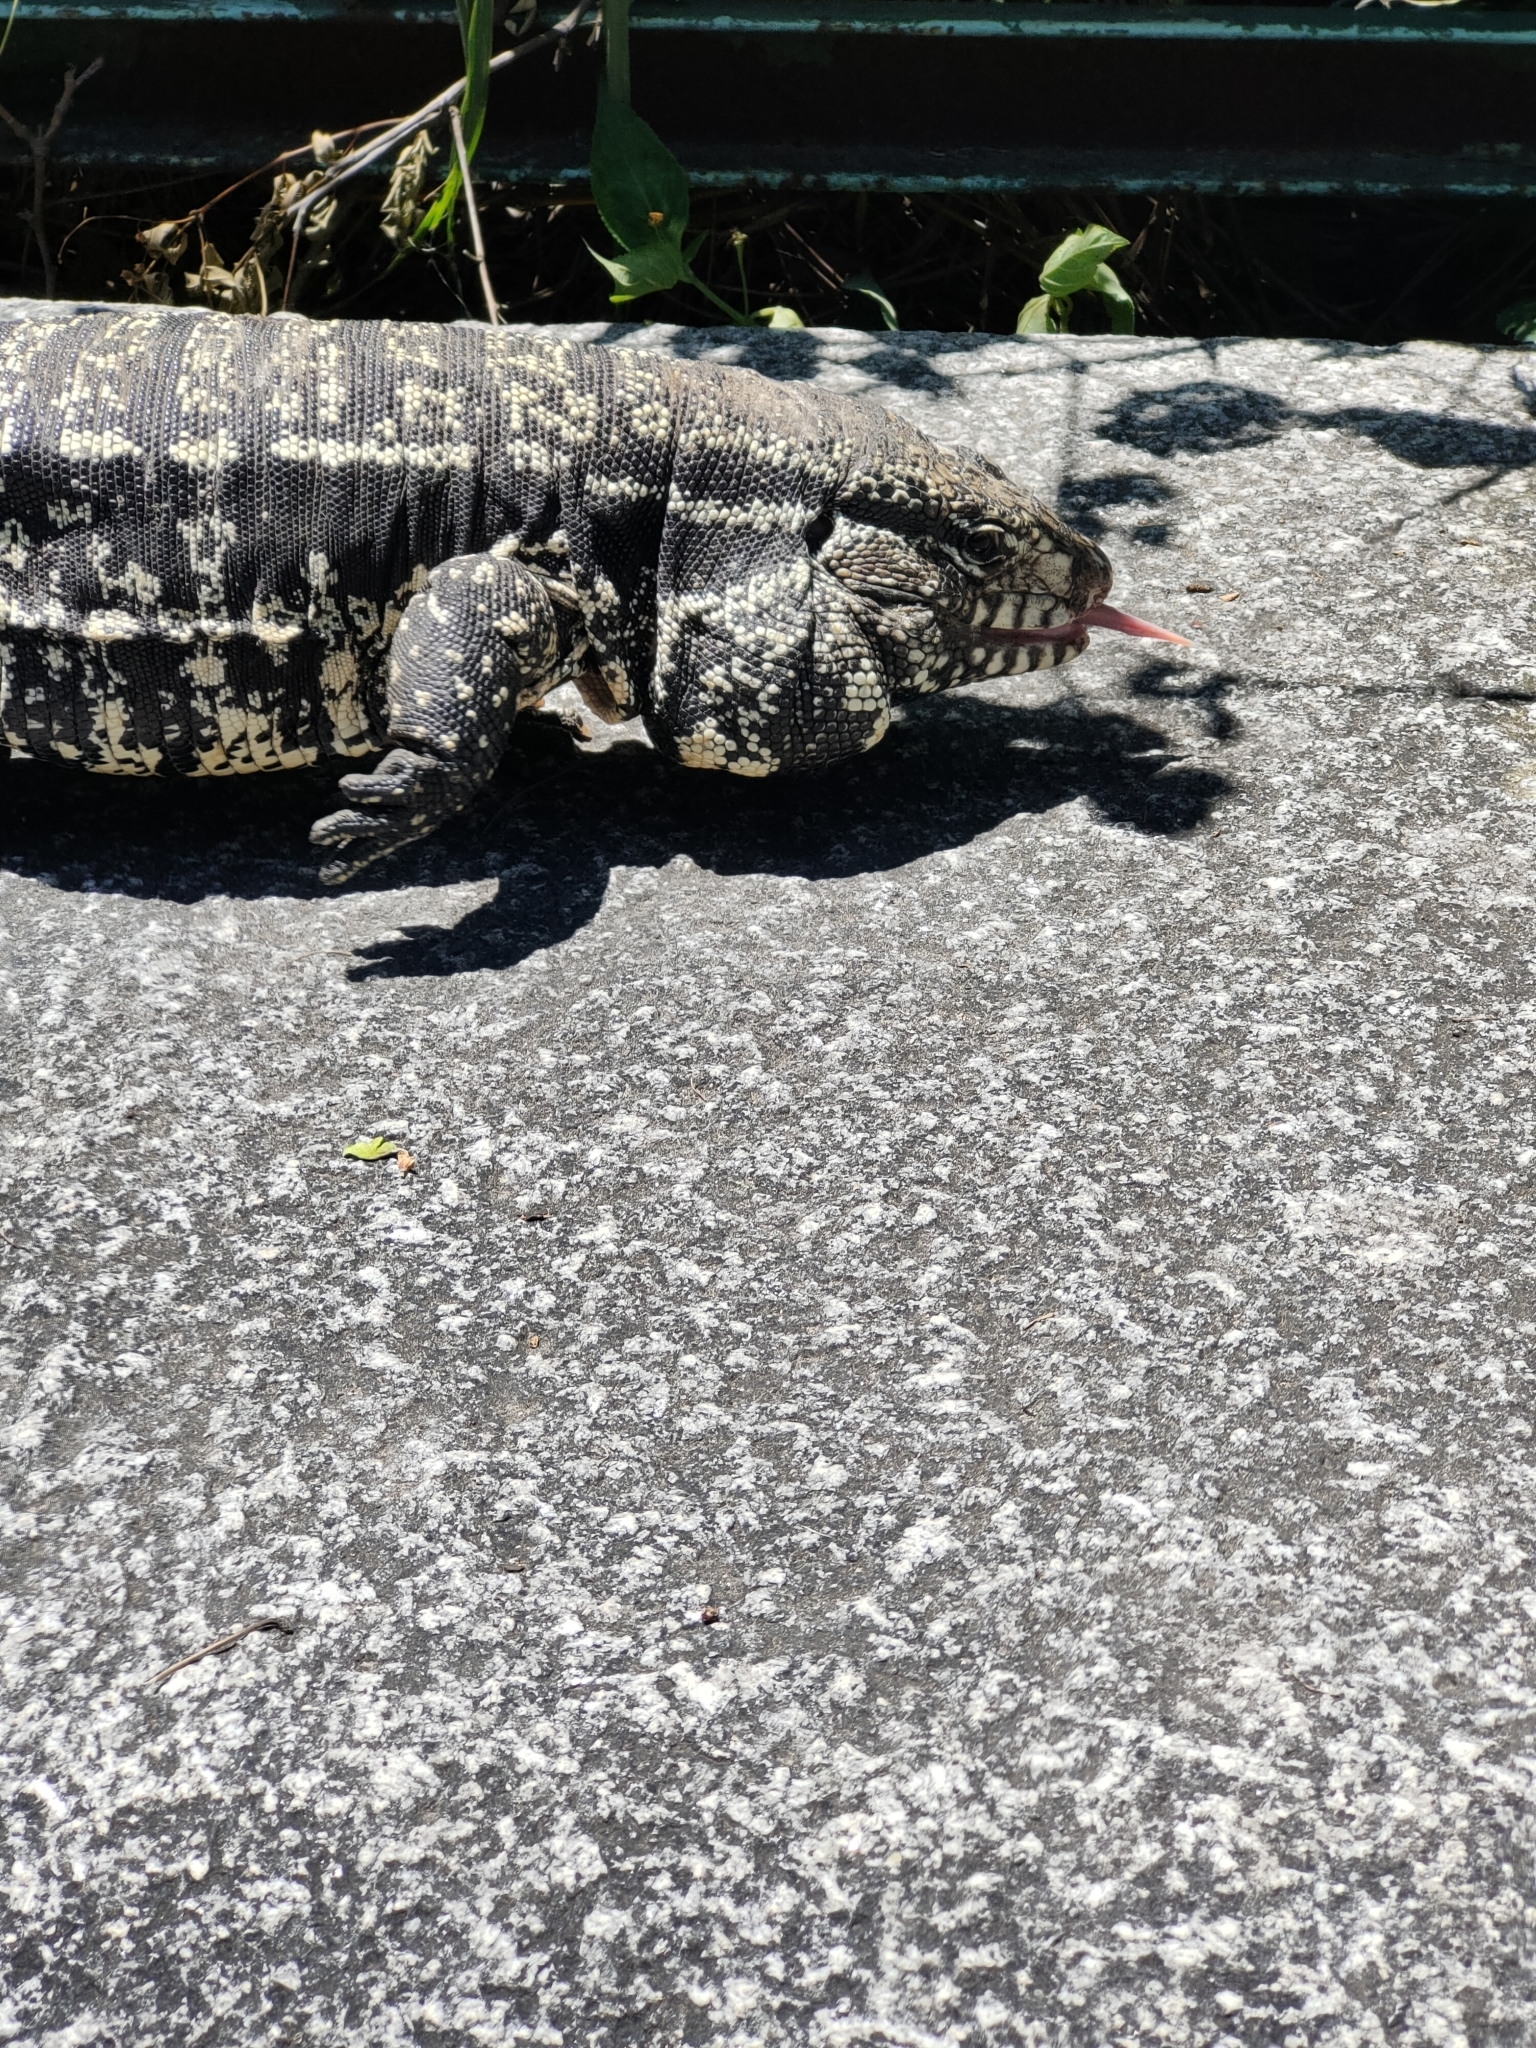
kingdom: Animalia
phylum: Chordata
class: Squamata
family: Teiidae
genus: Salvator
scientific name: Salvator merianae
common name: Argentine black and white tegu
